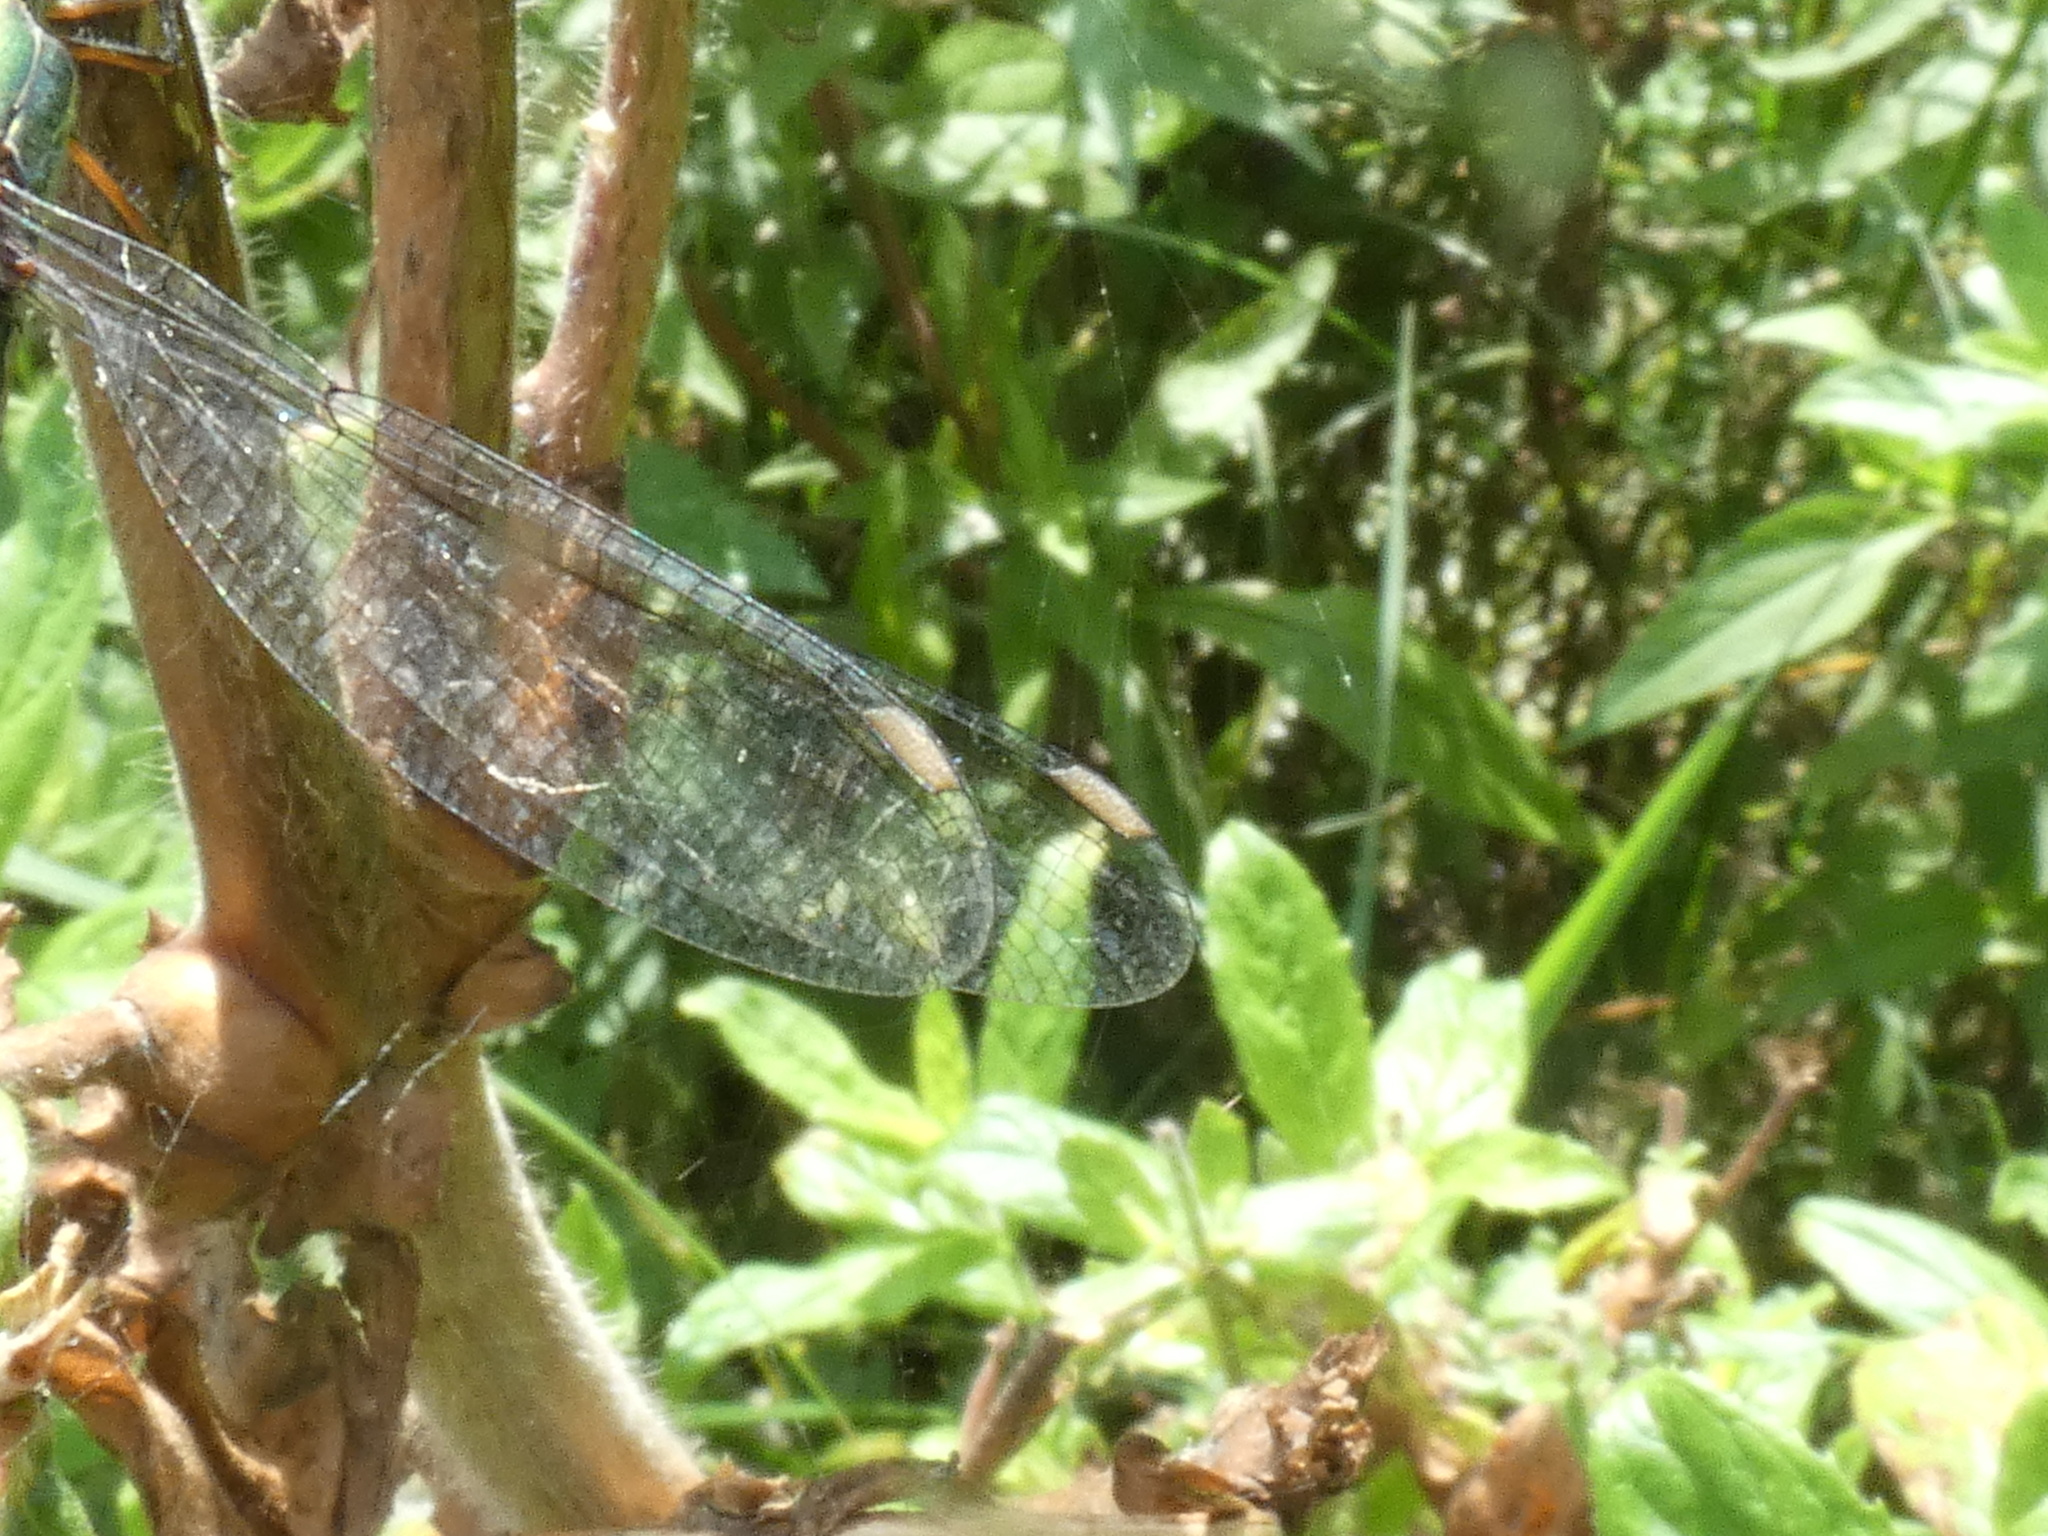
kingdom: Animalia
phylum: Arthropoda
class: Insecta
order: Odonata
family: Lestidae
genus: Chalcolestes
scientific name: Chalcolestes viridis
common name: Green emerald damselfly
